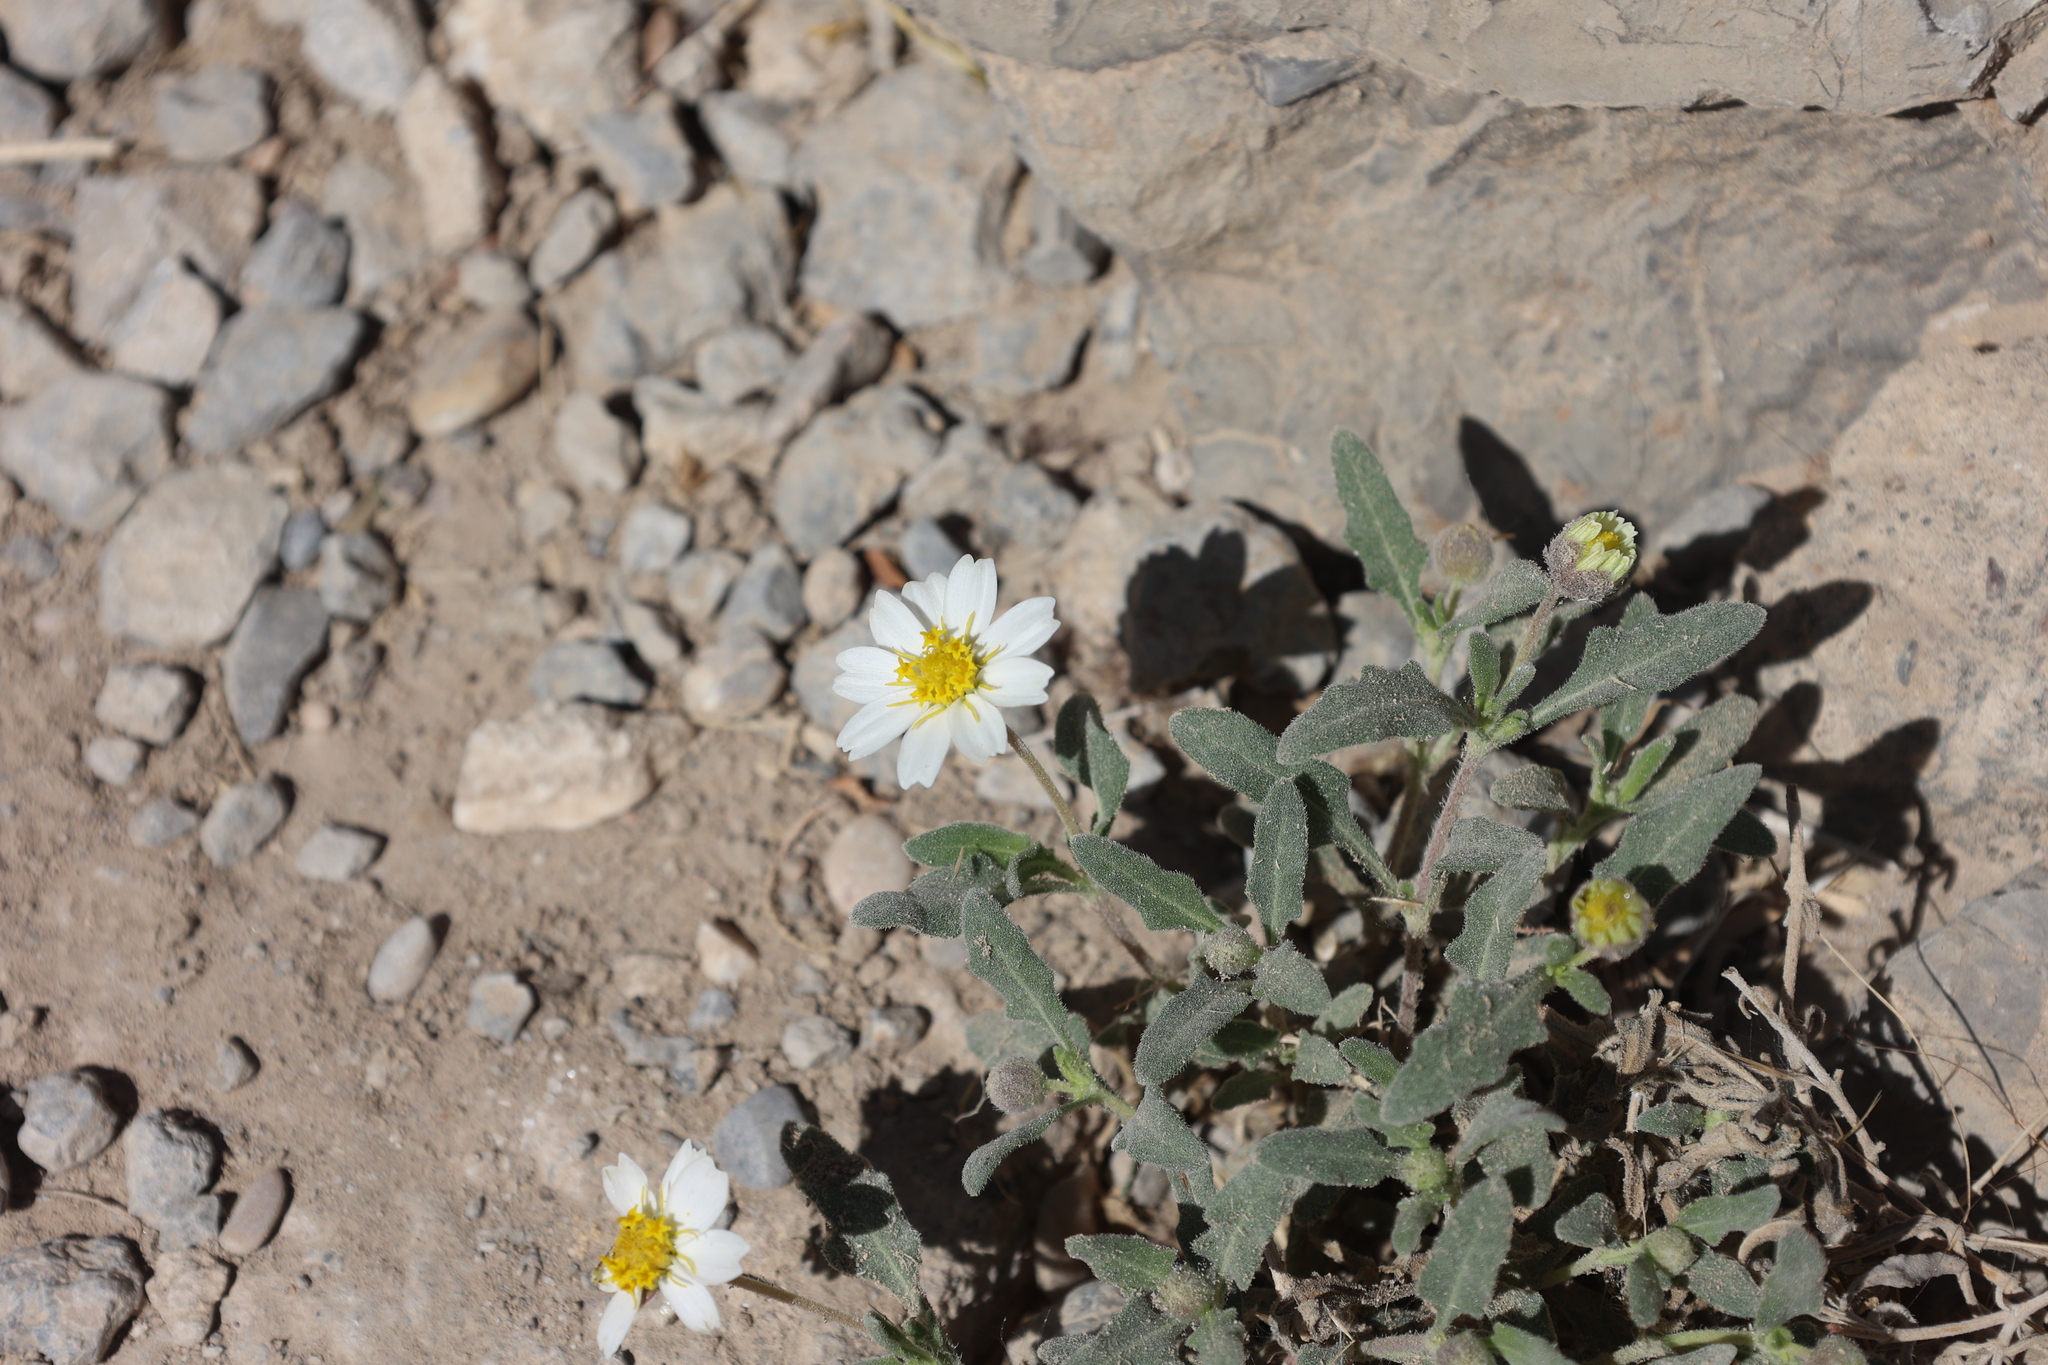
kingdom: Plantae
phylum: Tracheophyta
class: Magnoliopsida
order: Asterales
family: Asteraceae
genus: Melampodium
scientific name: Melampodium leucanthum
